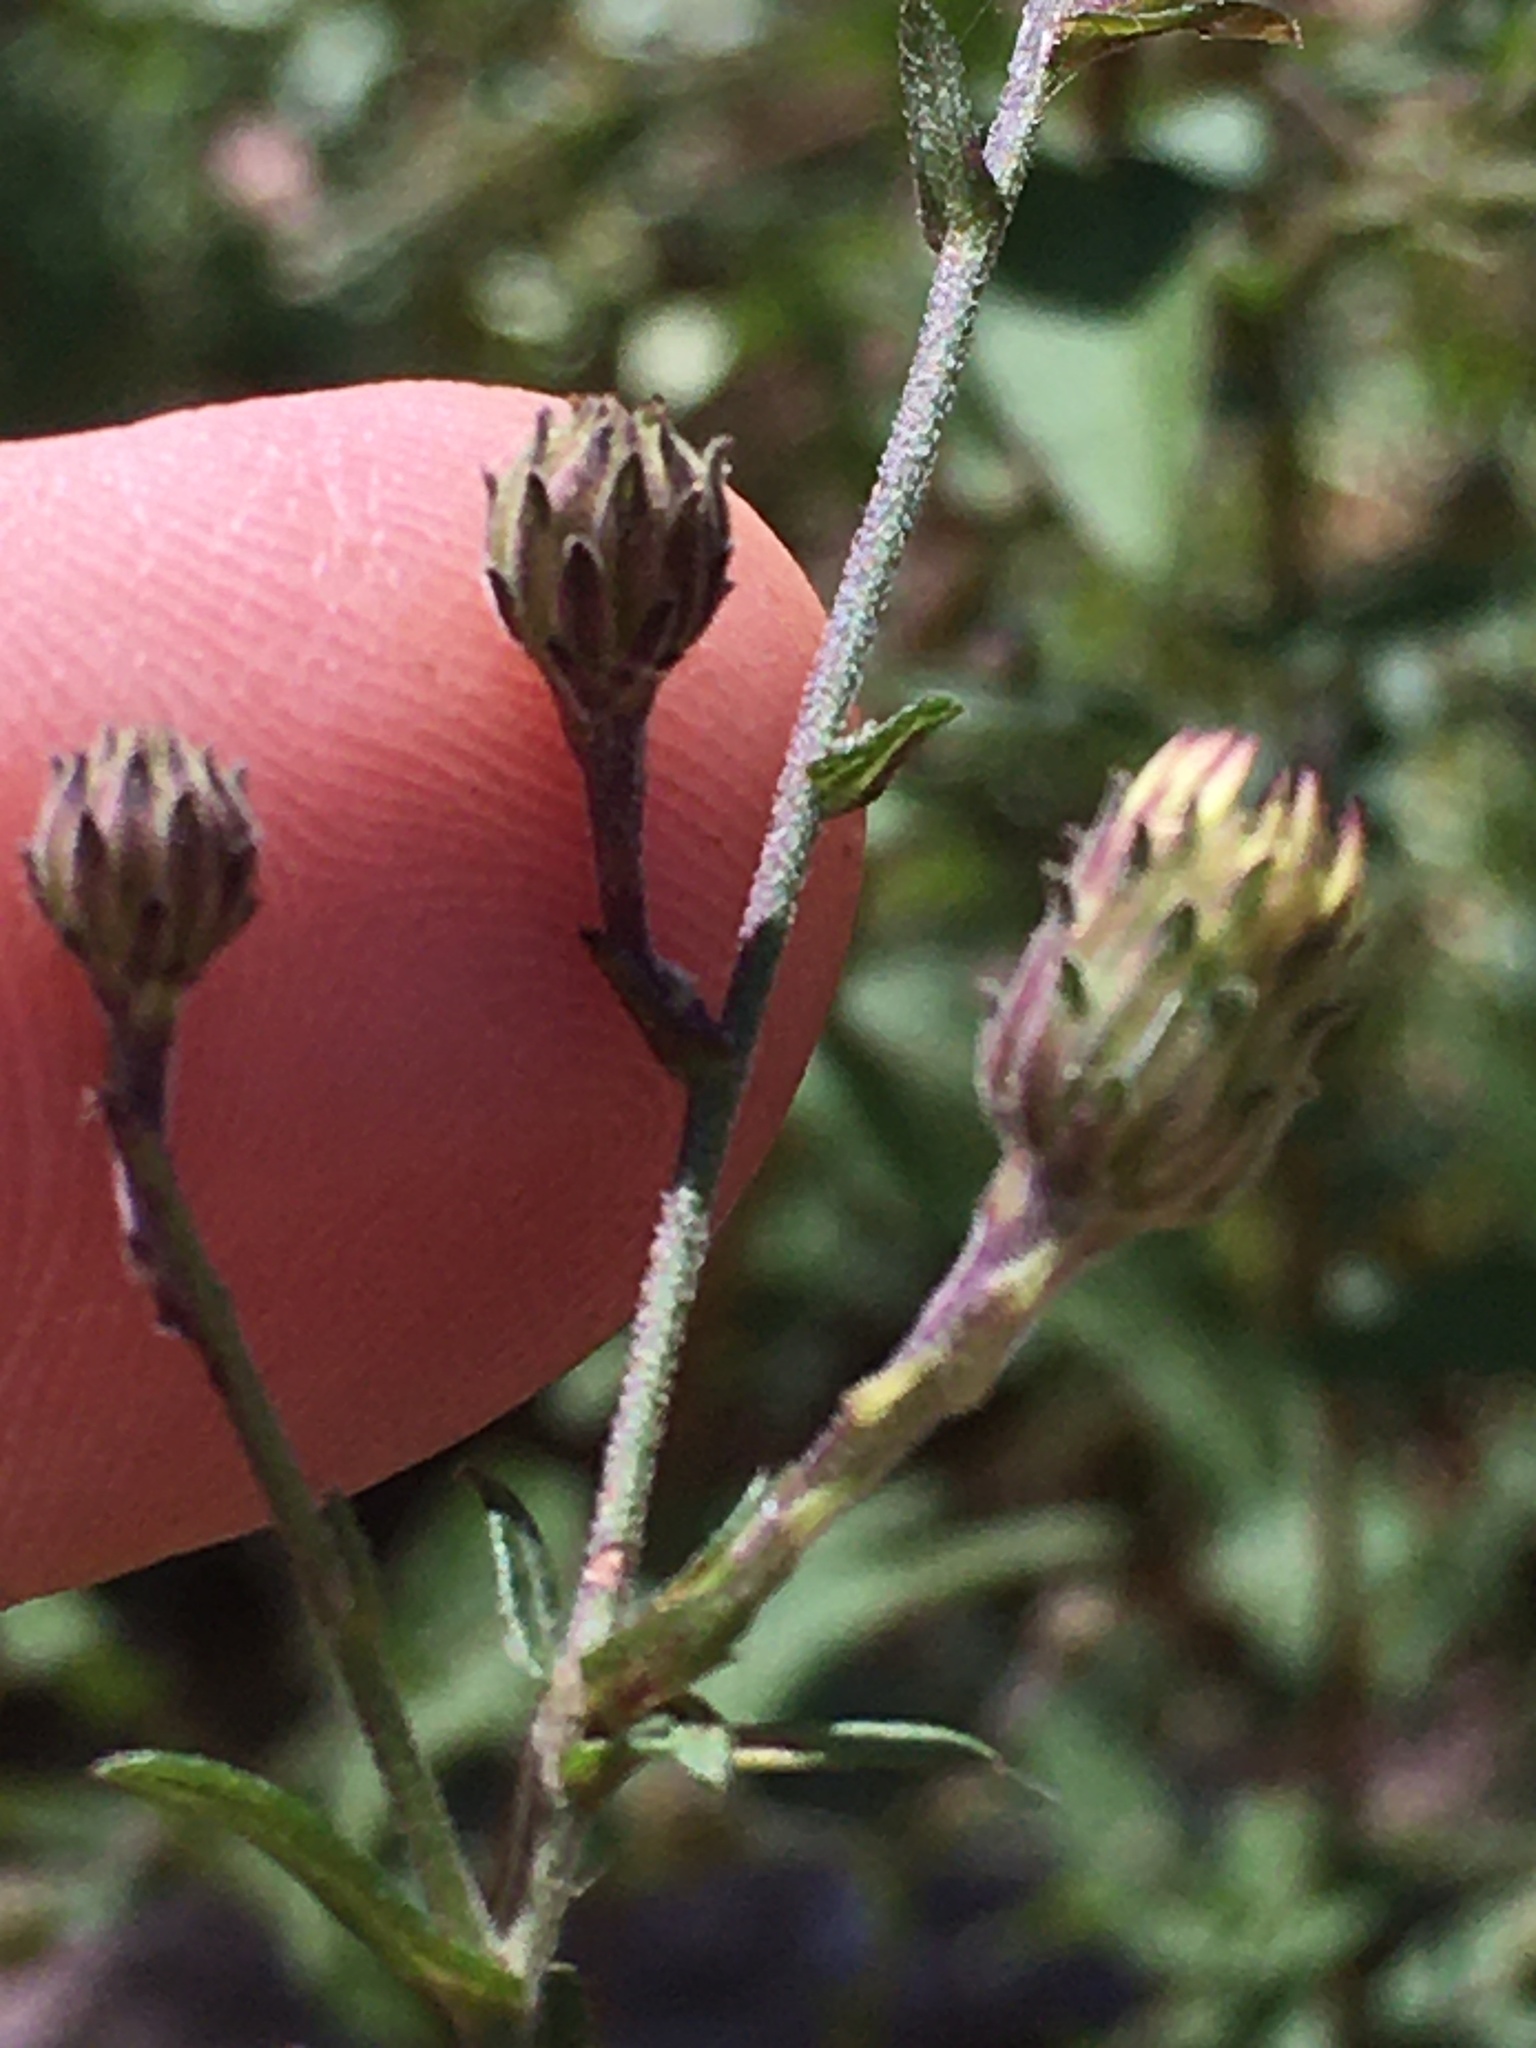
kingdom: Plantae
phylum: Tracheophyta
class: Magnoliopsida
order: Asterales
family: Asteraceae
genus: Symphyotrichum
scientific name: Symphyotrichum patens
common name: Late purple aster
